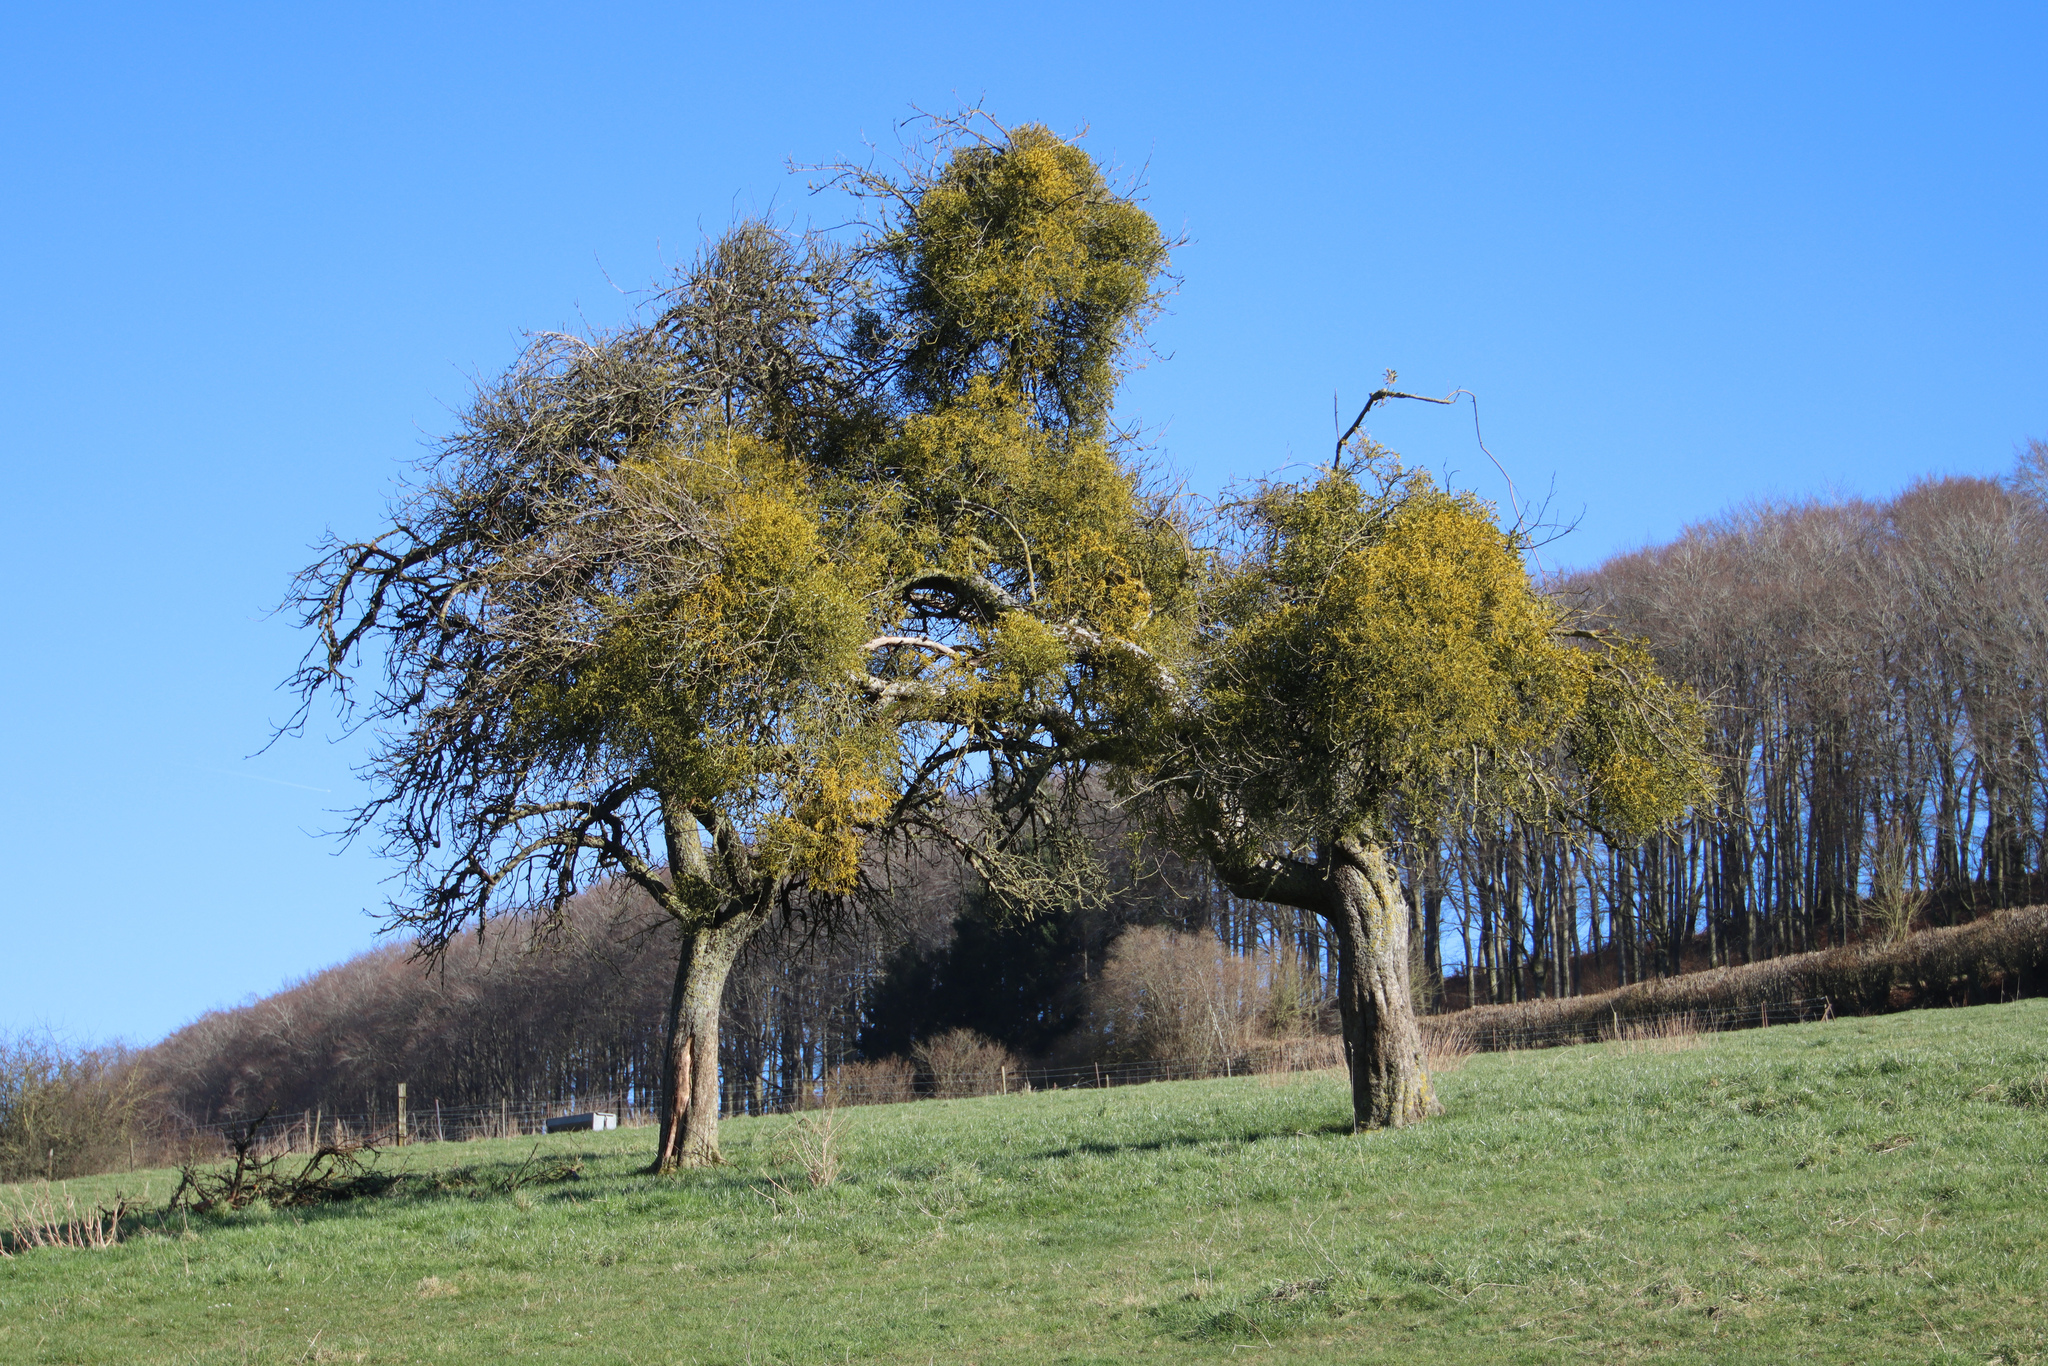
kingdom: Plantae
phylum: Tracheophyta
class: Magnoliopsida
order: Santalales
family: Viscaceae
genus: Viscum
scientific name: Viscum album
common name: Mistletoe
